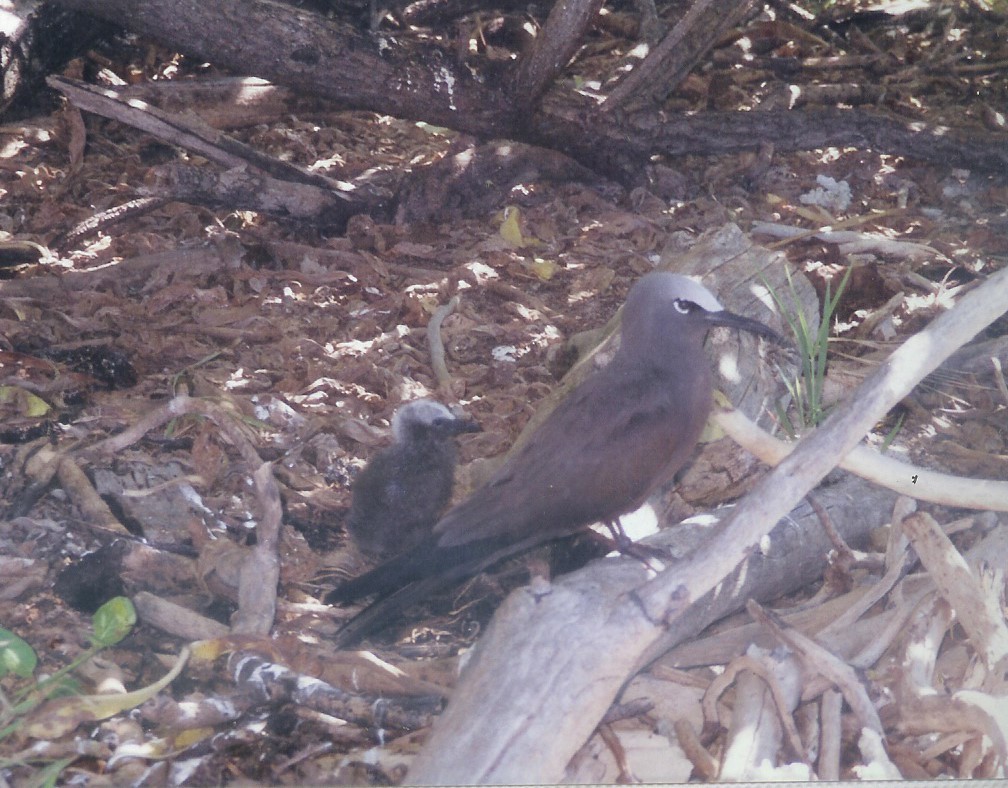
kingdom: Animalia
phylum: Chordata
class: Aves
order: Charadriiformes
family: Laridae
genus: Anous
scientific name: Anous stolidus
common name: Brown noddy
